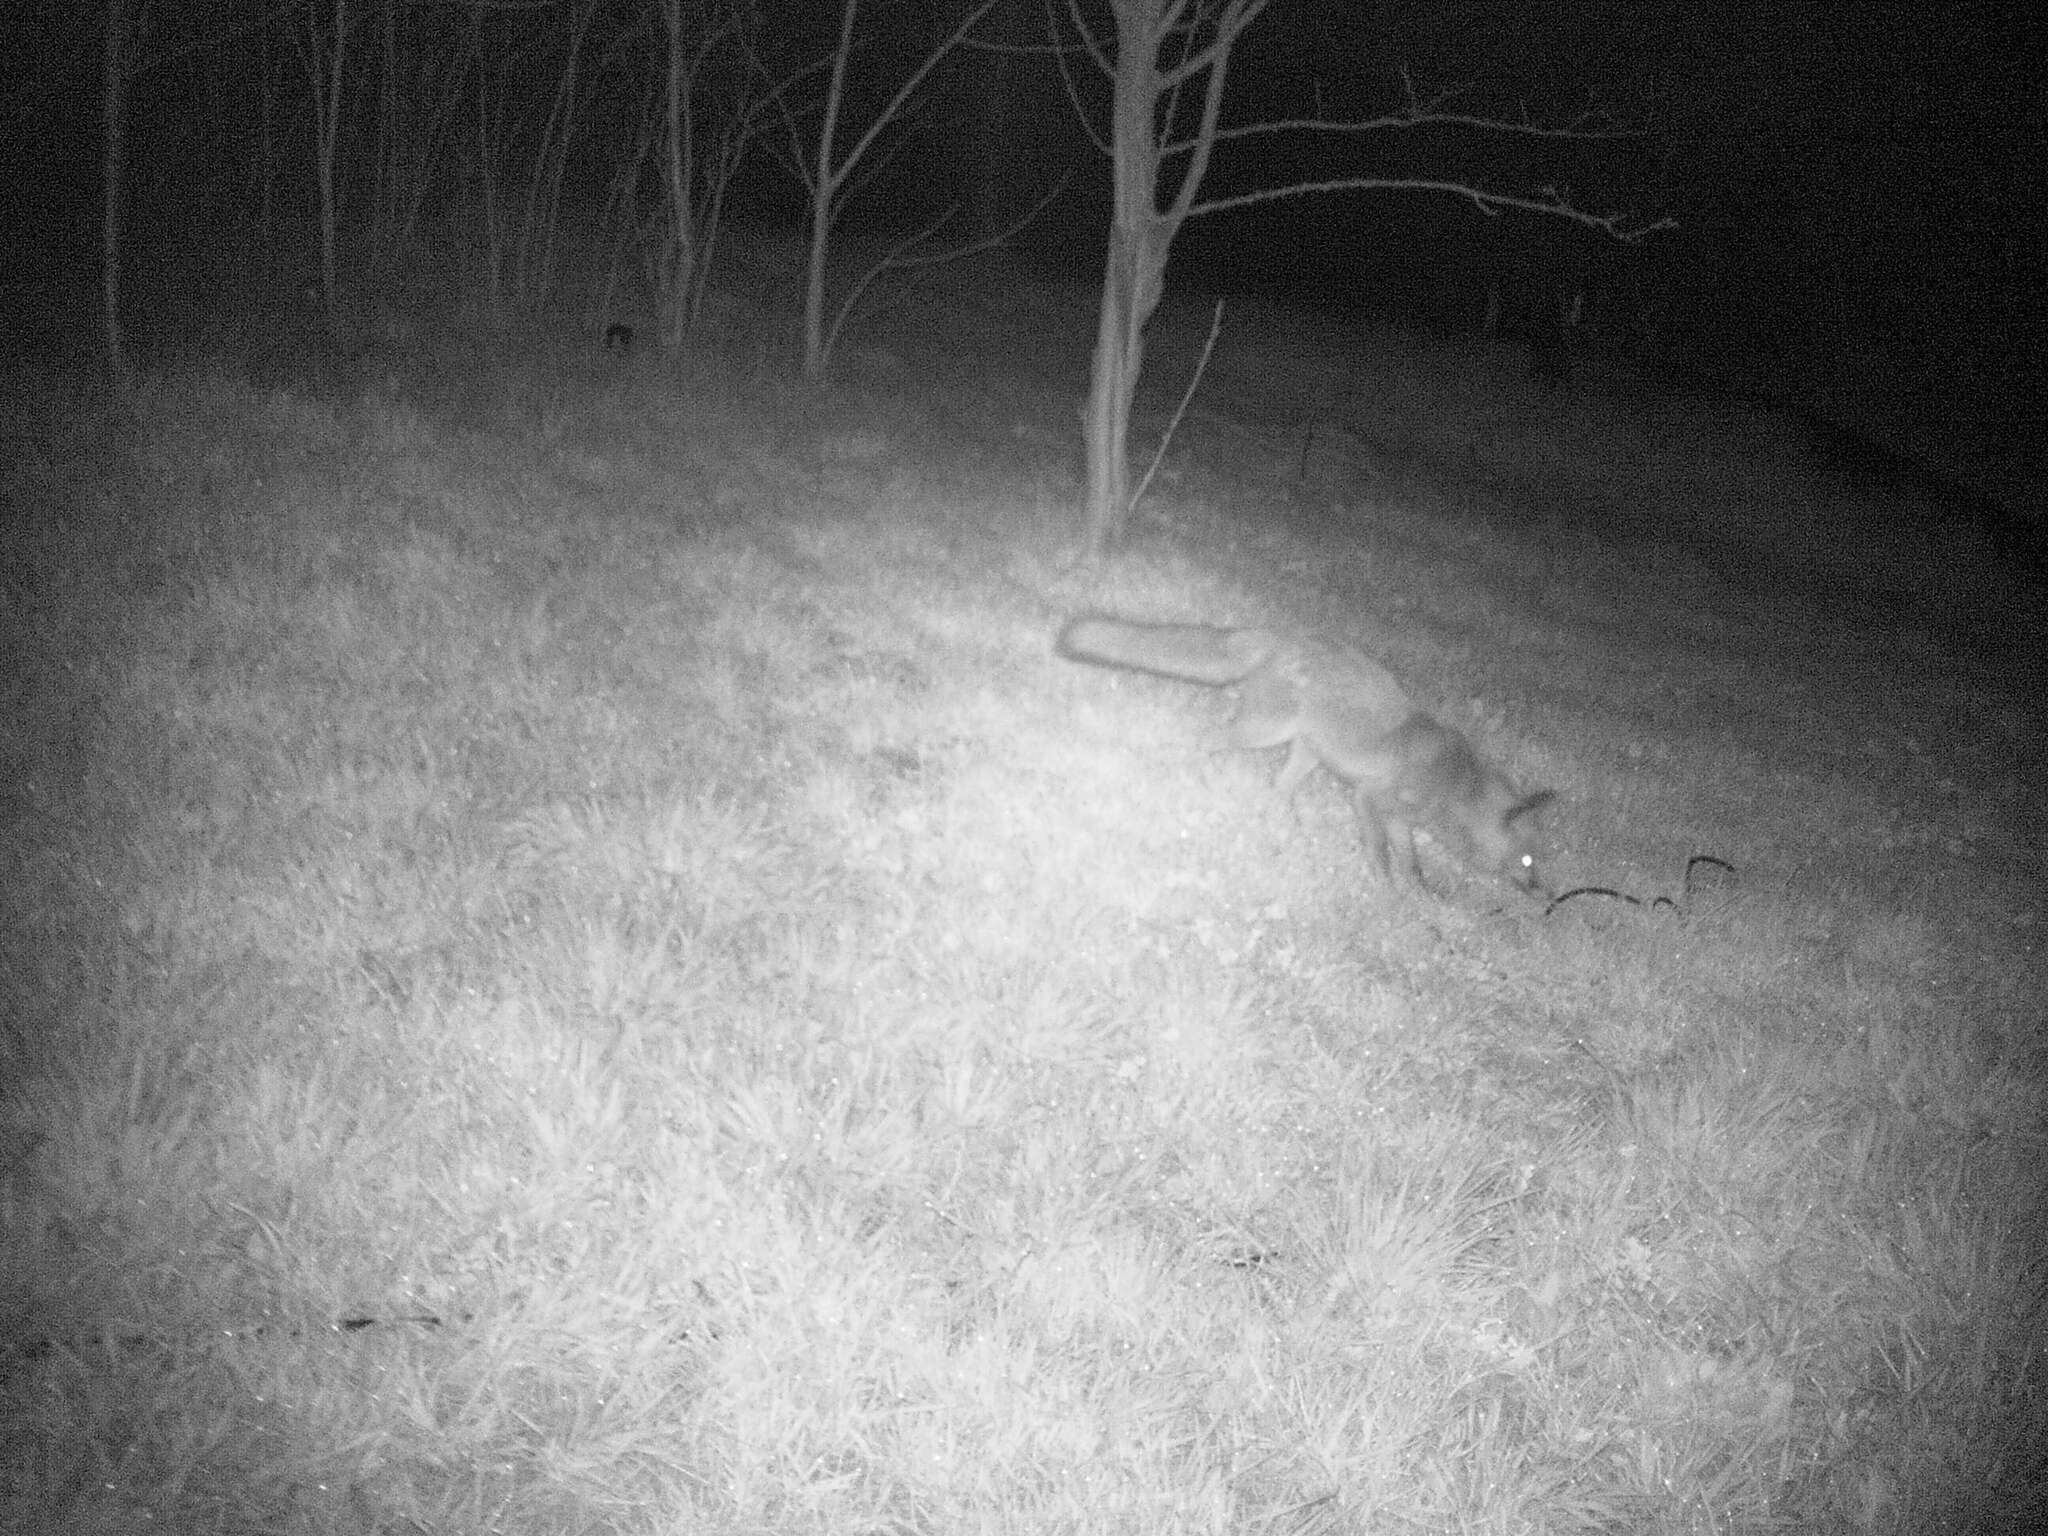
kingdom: Animalia
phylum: Chordata
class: Mammalia
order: Carnivora
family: Canidae
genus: Vulpes
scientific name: Vulpes vulpes
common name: Red fox
